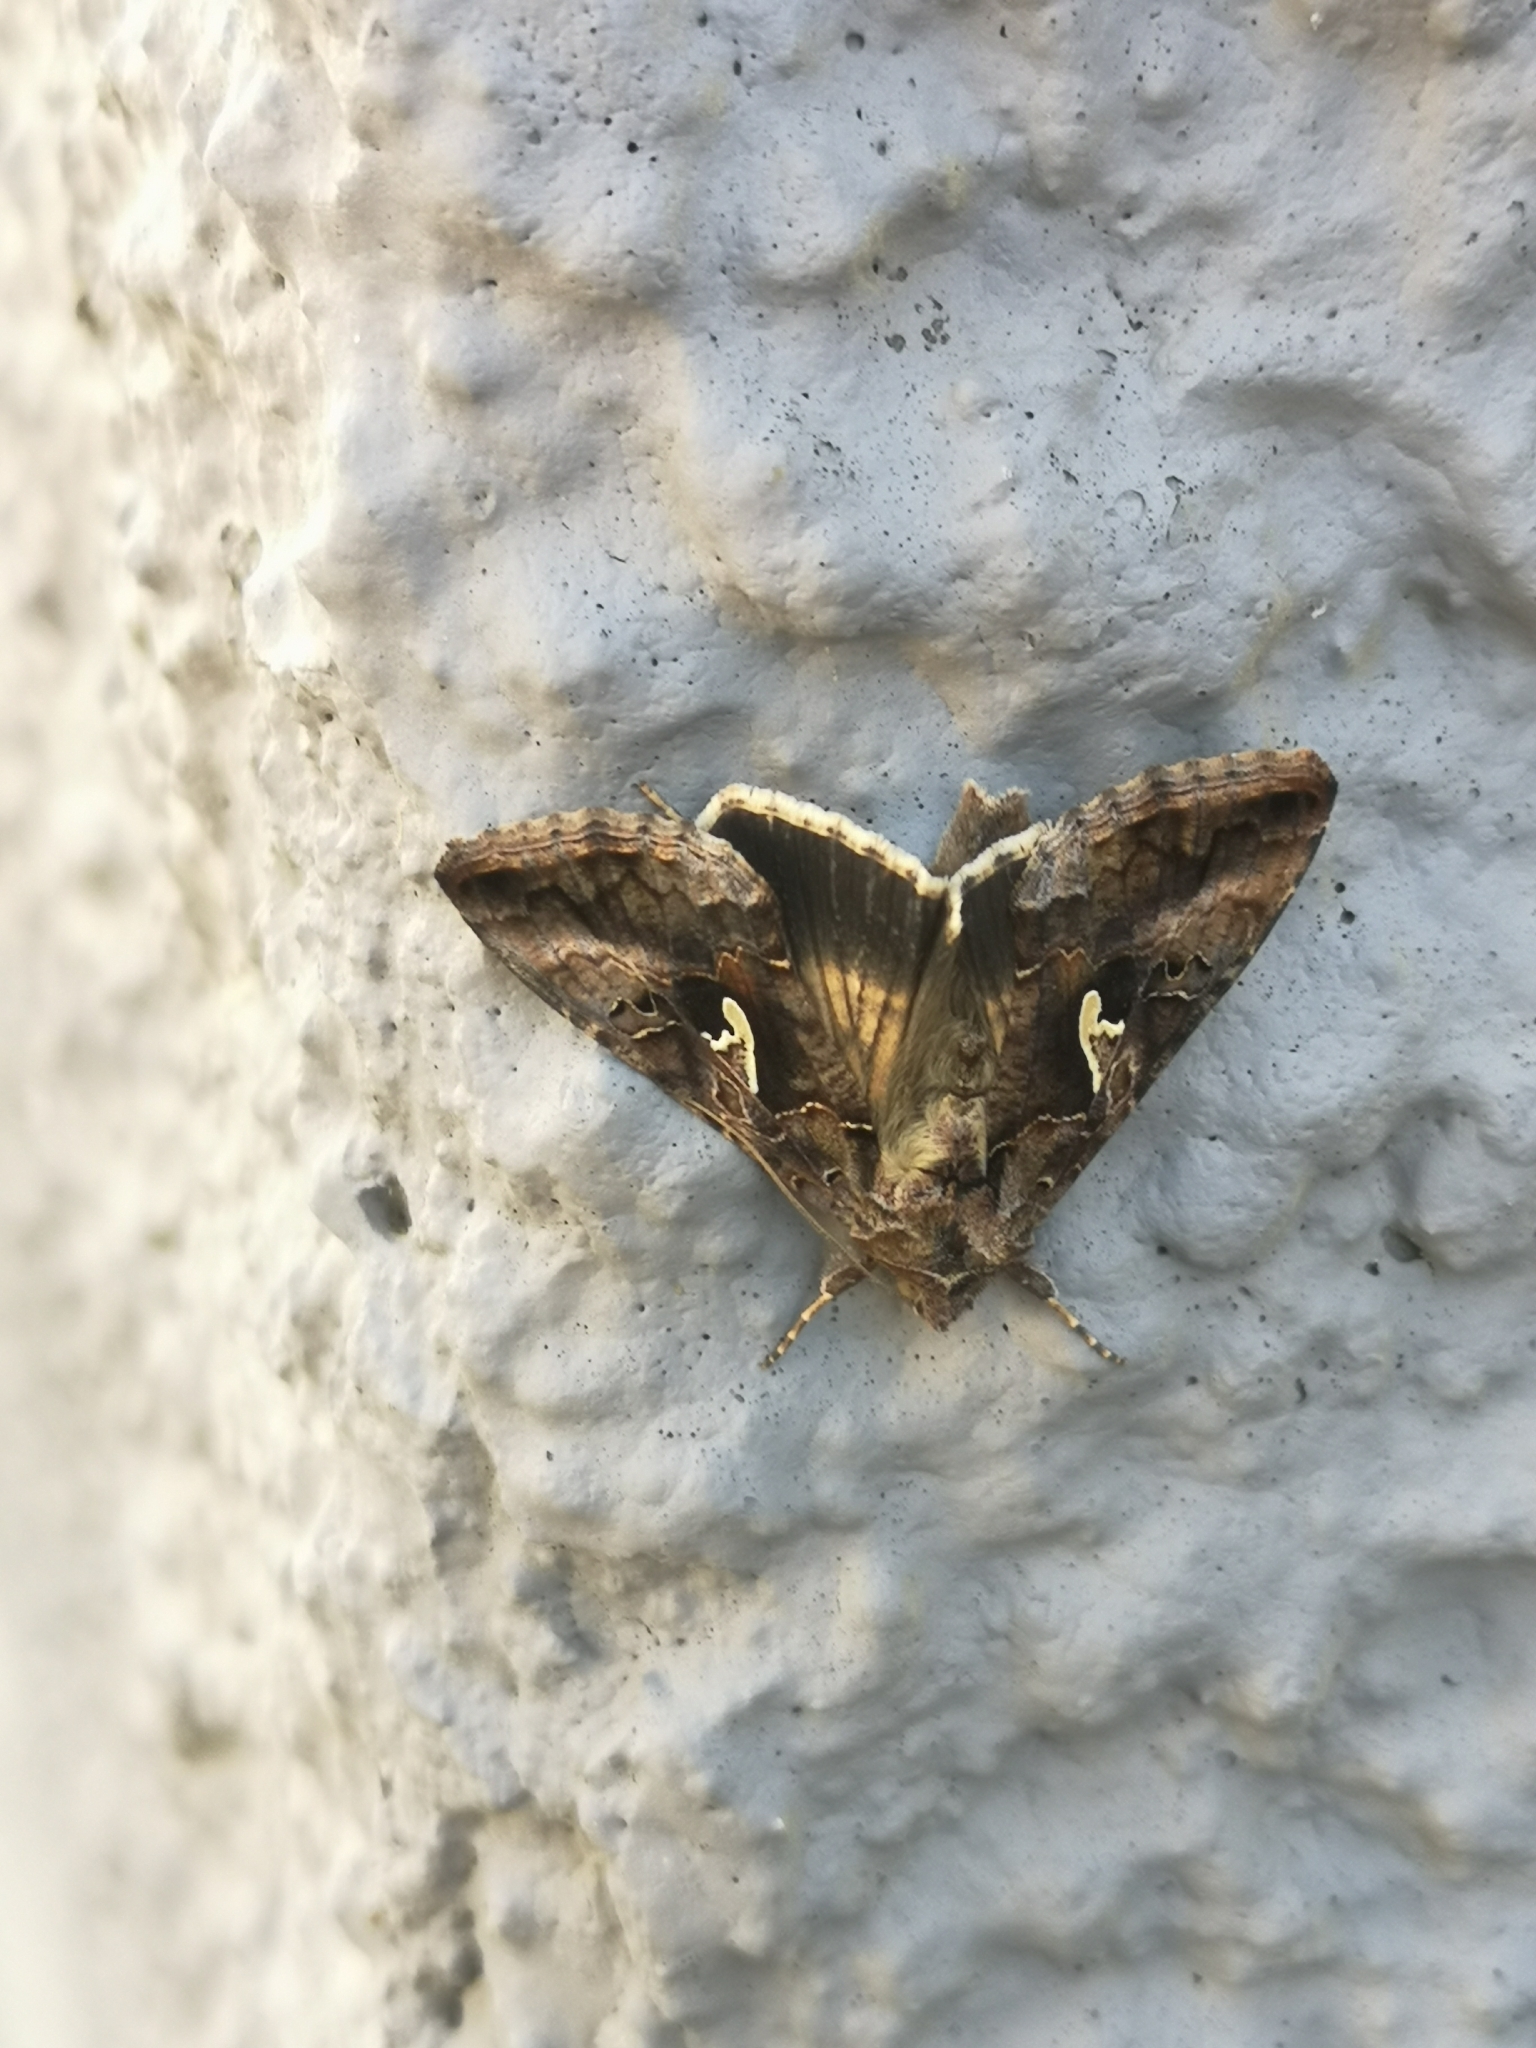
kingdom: Animalia
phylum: Arthropoda
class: Insecta
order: Lepidoptera
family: Noctuidae
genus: Autographa
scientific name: Autographa gamma
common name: Silver y
